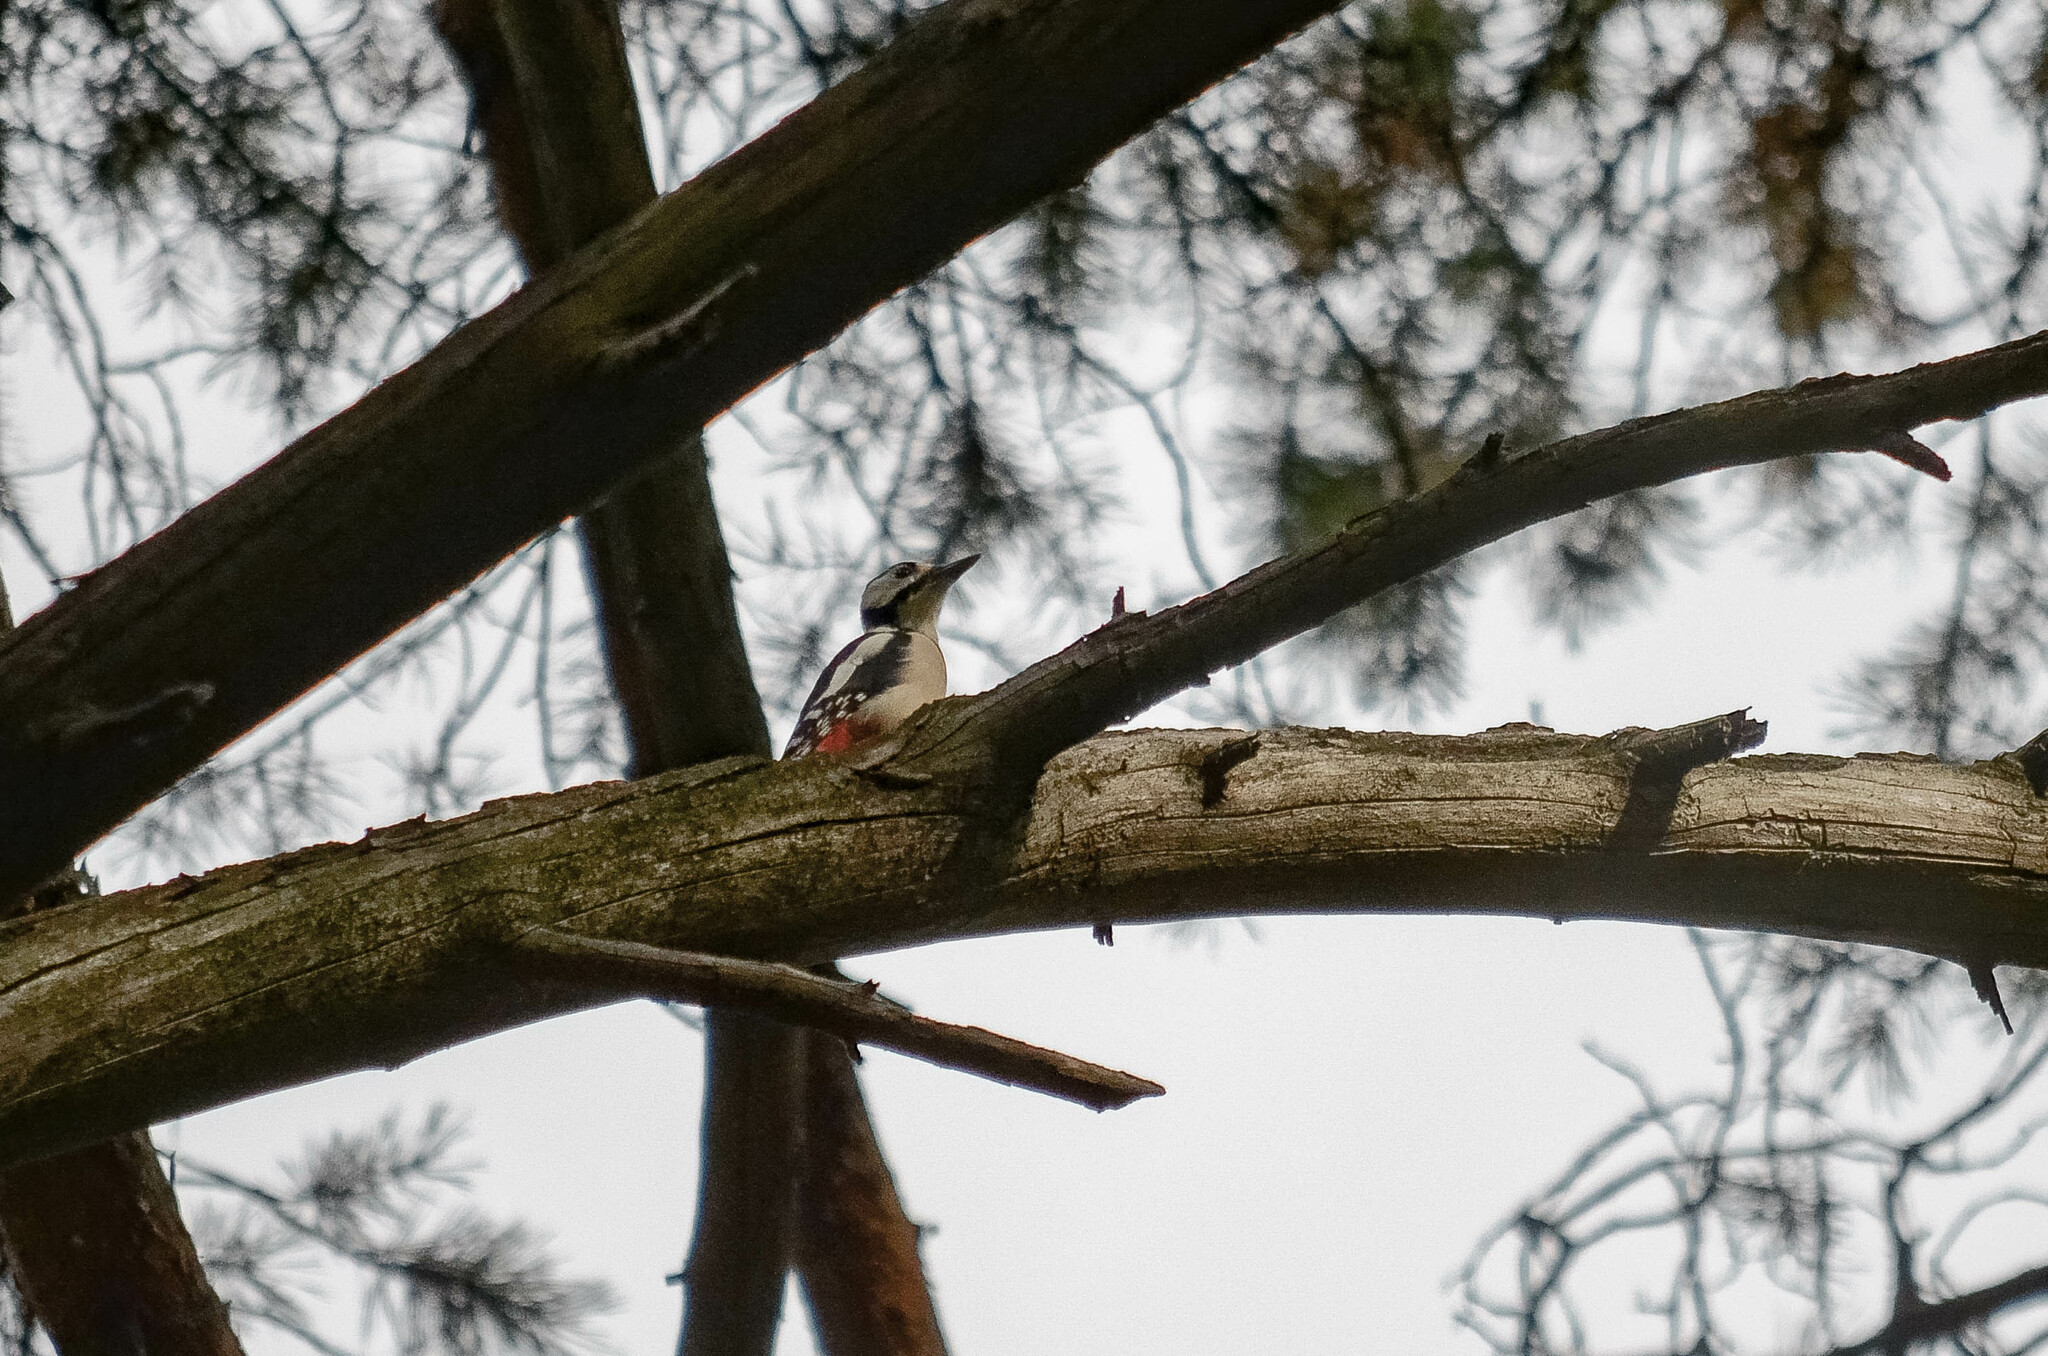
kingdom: Animalia
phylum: Chordata
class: Aves
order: Piciformes
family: Picidae
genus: Dendrocopos
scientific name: Dendrocopos major
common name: Great spotted woodpecker
